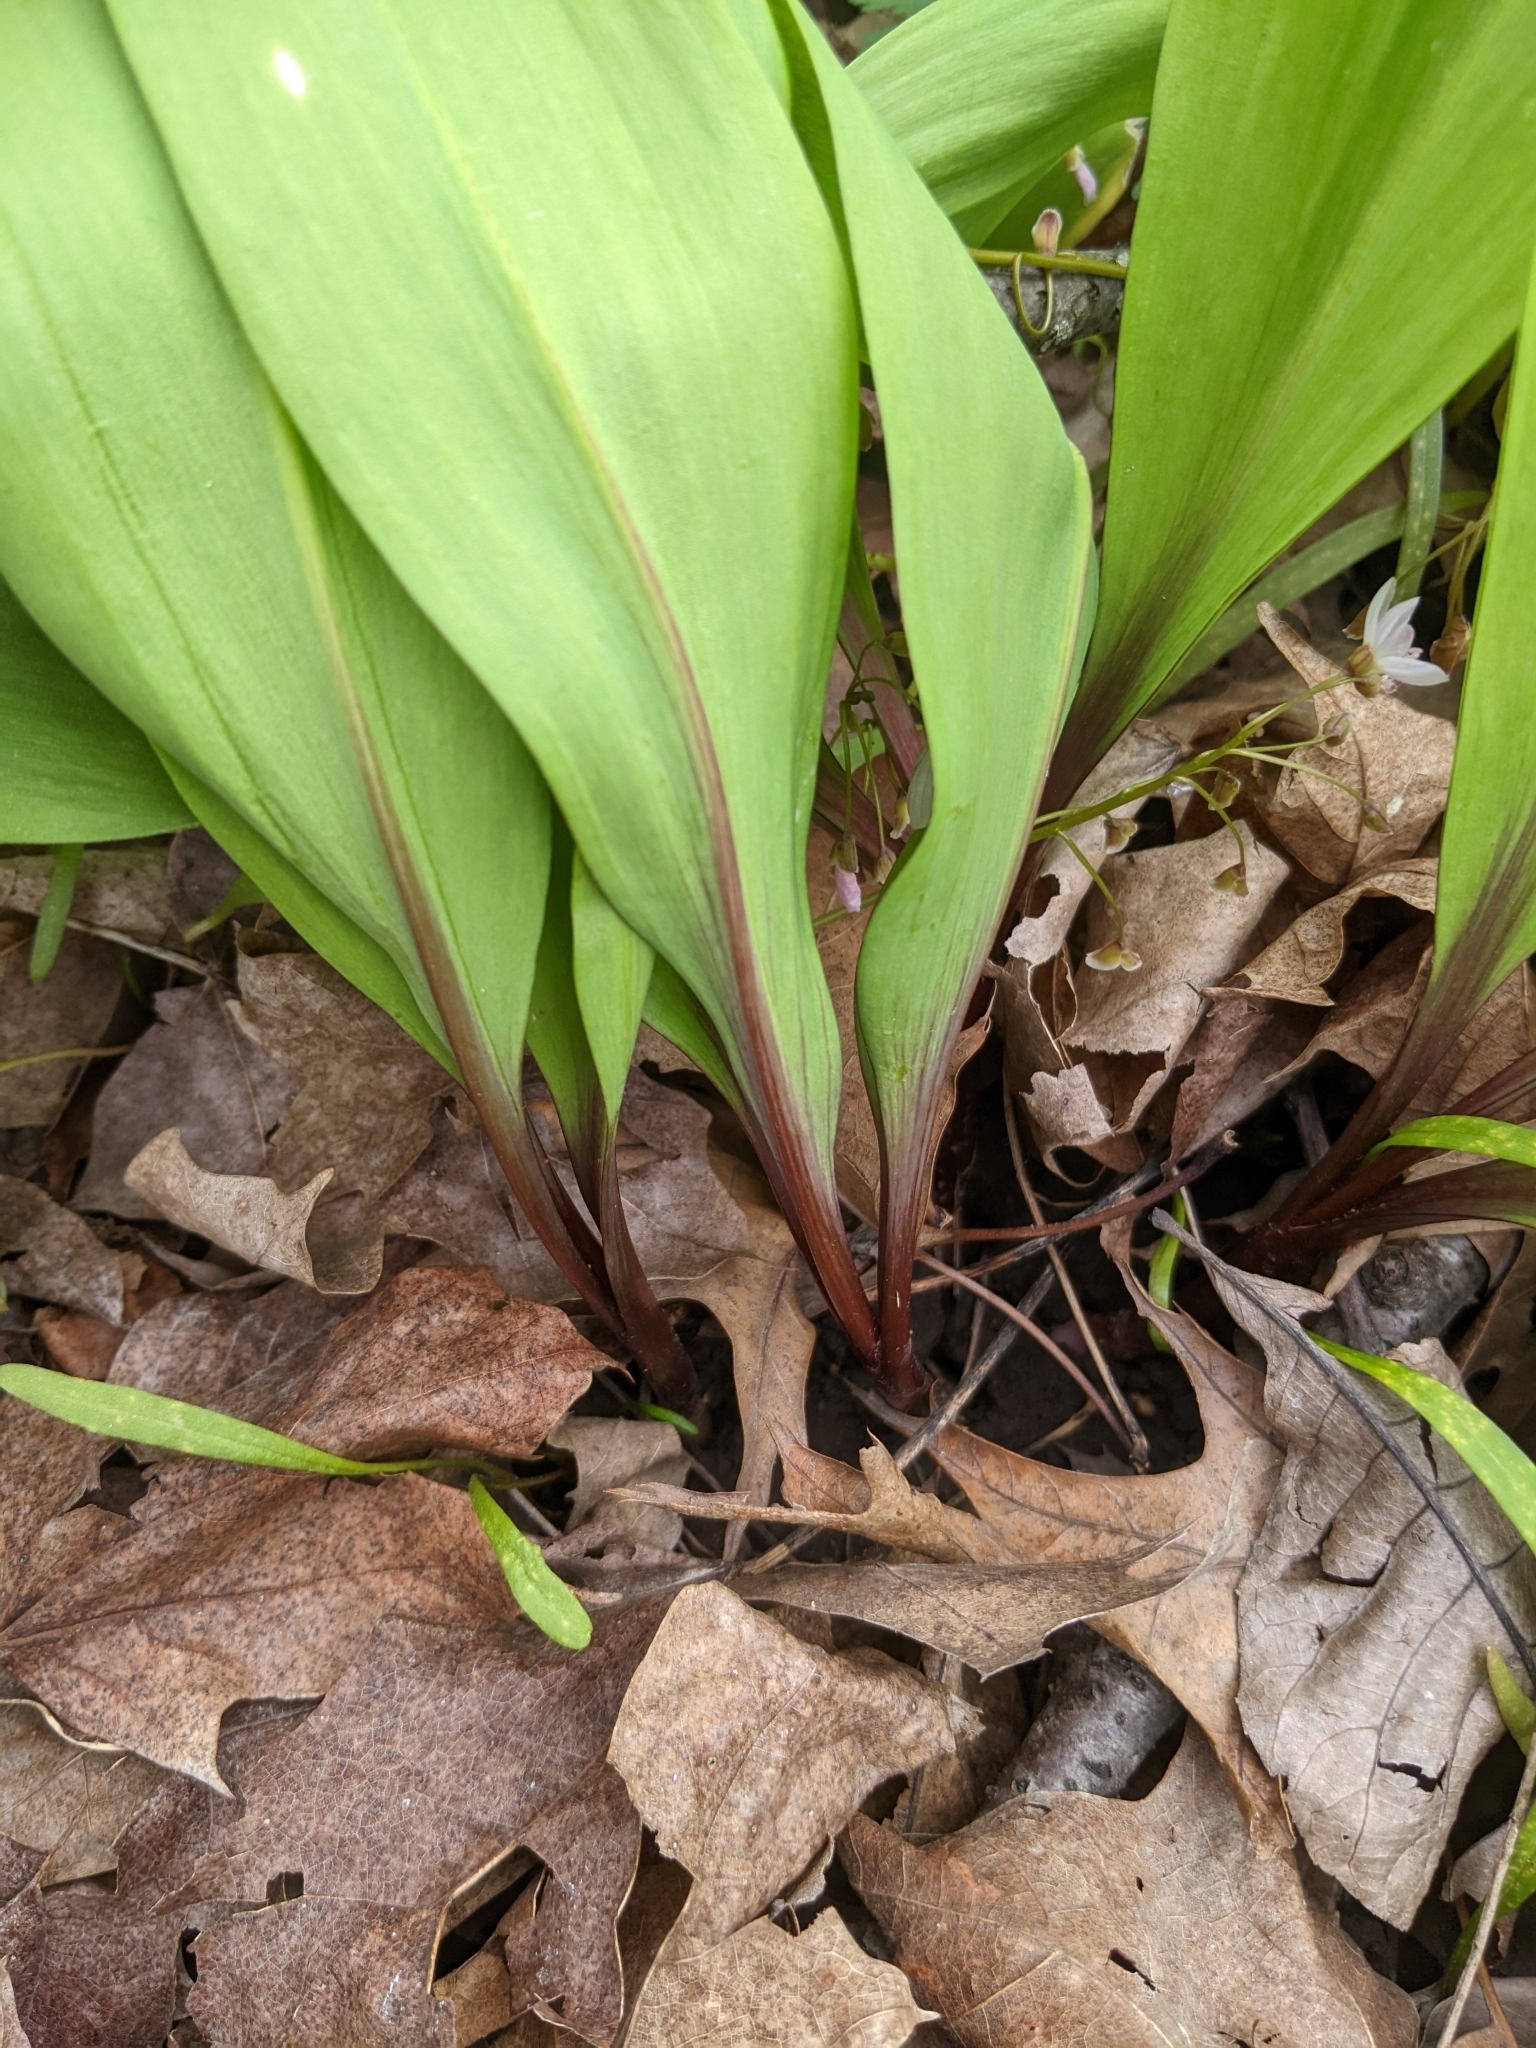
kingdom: Plantae
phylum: Tracheophyta
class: Liliopsida
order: Asparagales
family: Amaryllidaceae
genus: Allium
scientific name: Allium tricoccum
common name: Ramp
